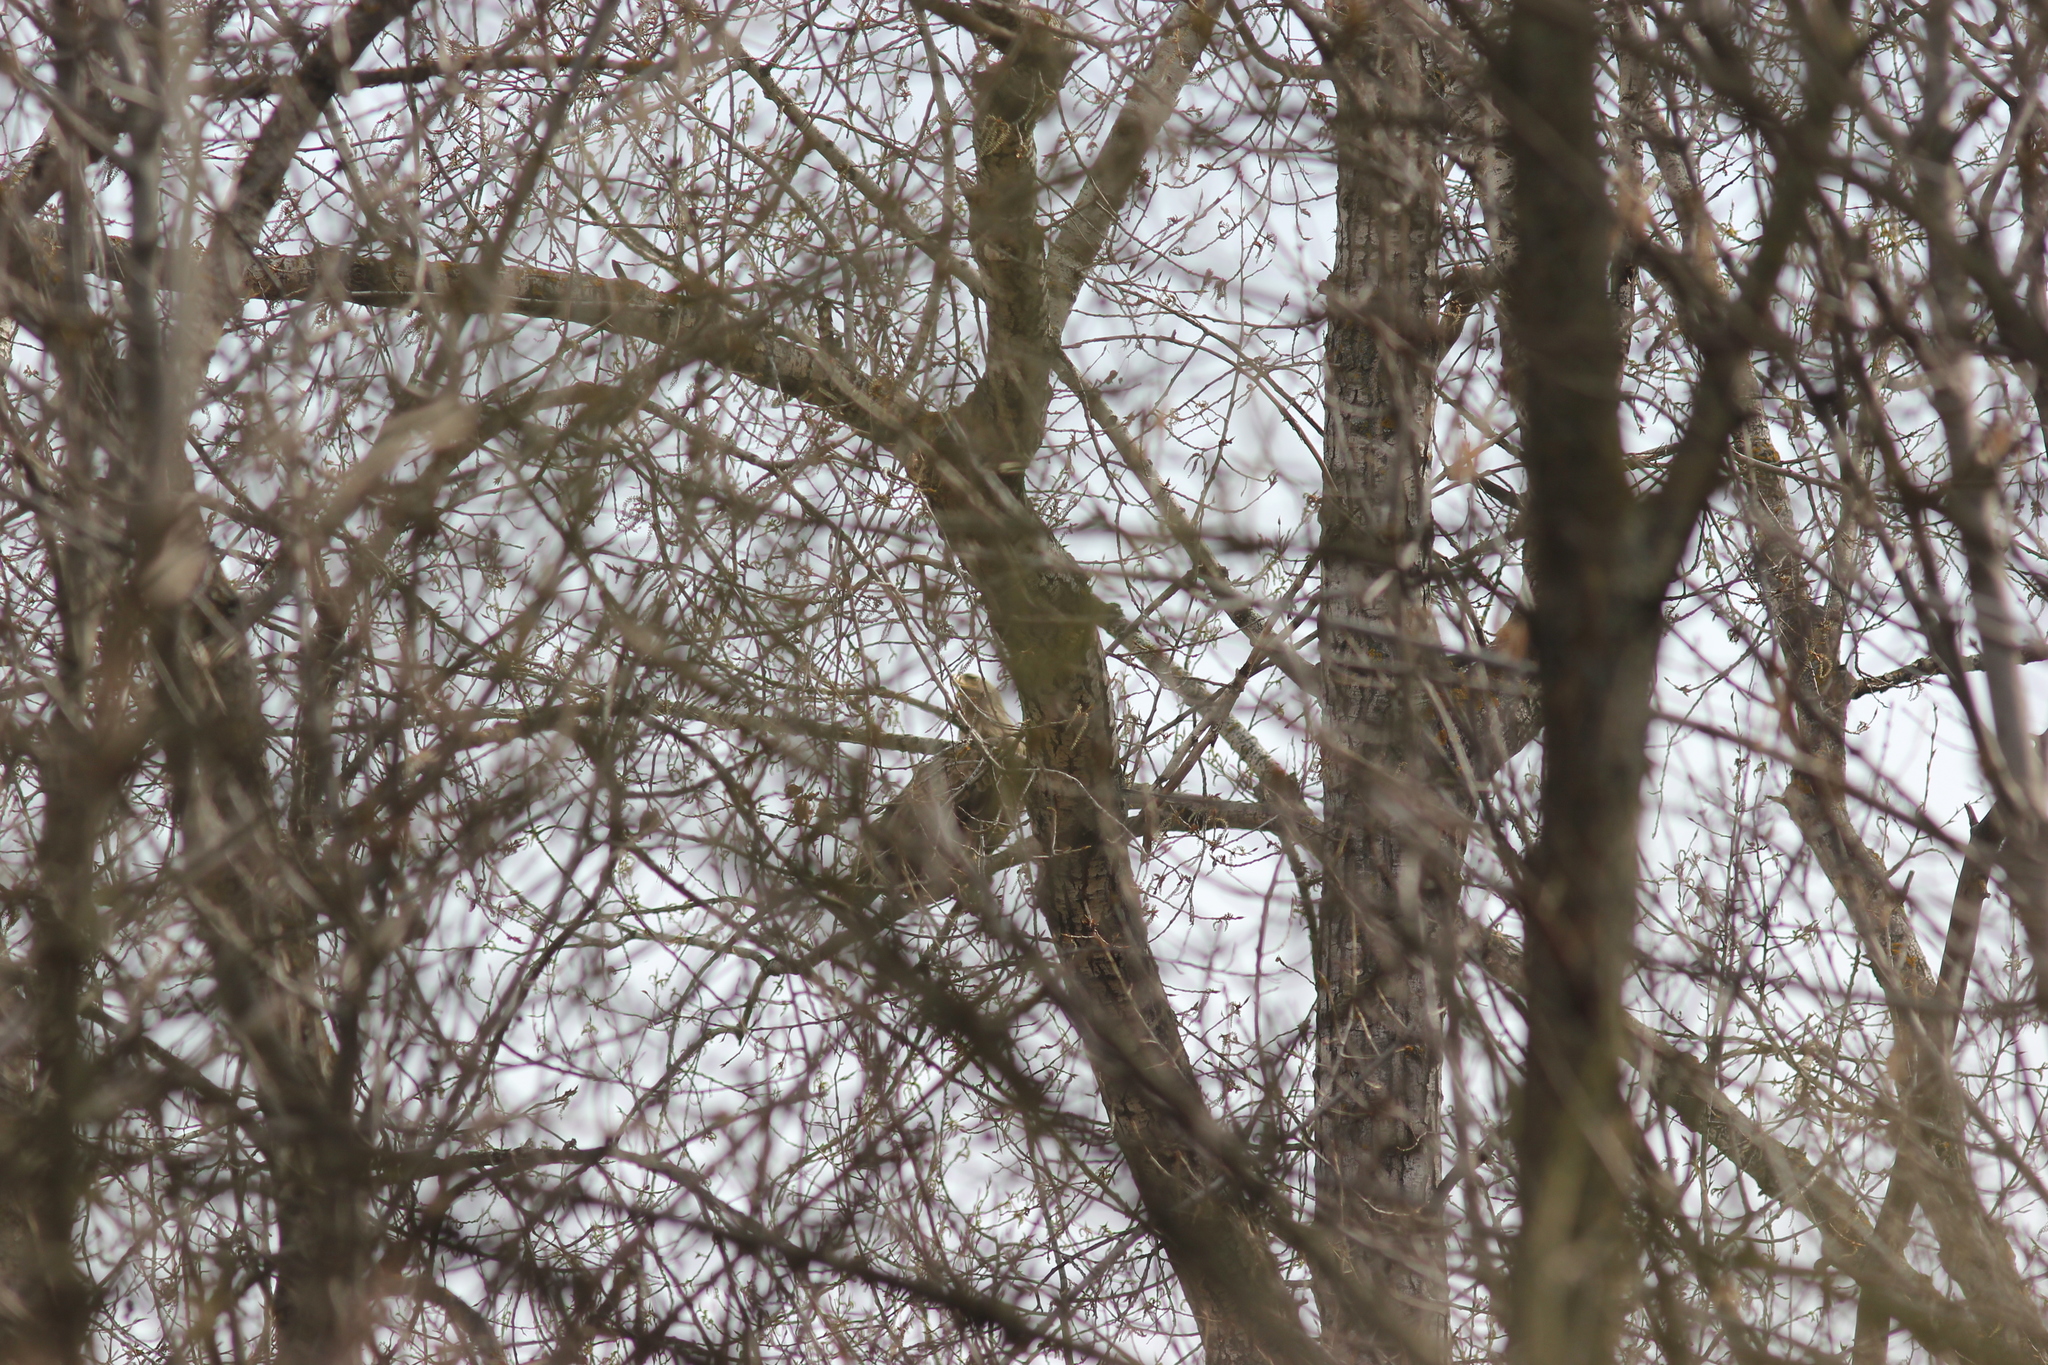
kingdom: Animalia
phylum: Chordata
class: Aves
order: Accipitriformes
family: Accipitridae
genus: Haliaeetus
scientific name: Haliaeetus albicilla
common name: White-tailed eagle
